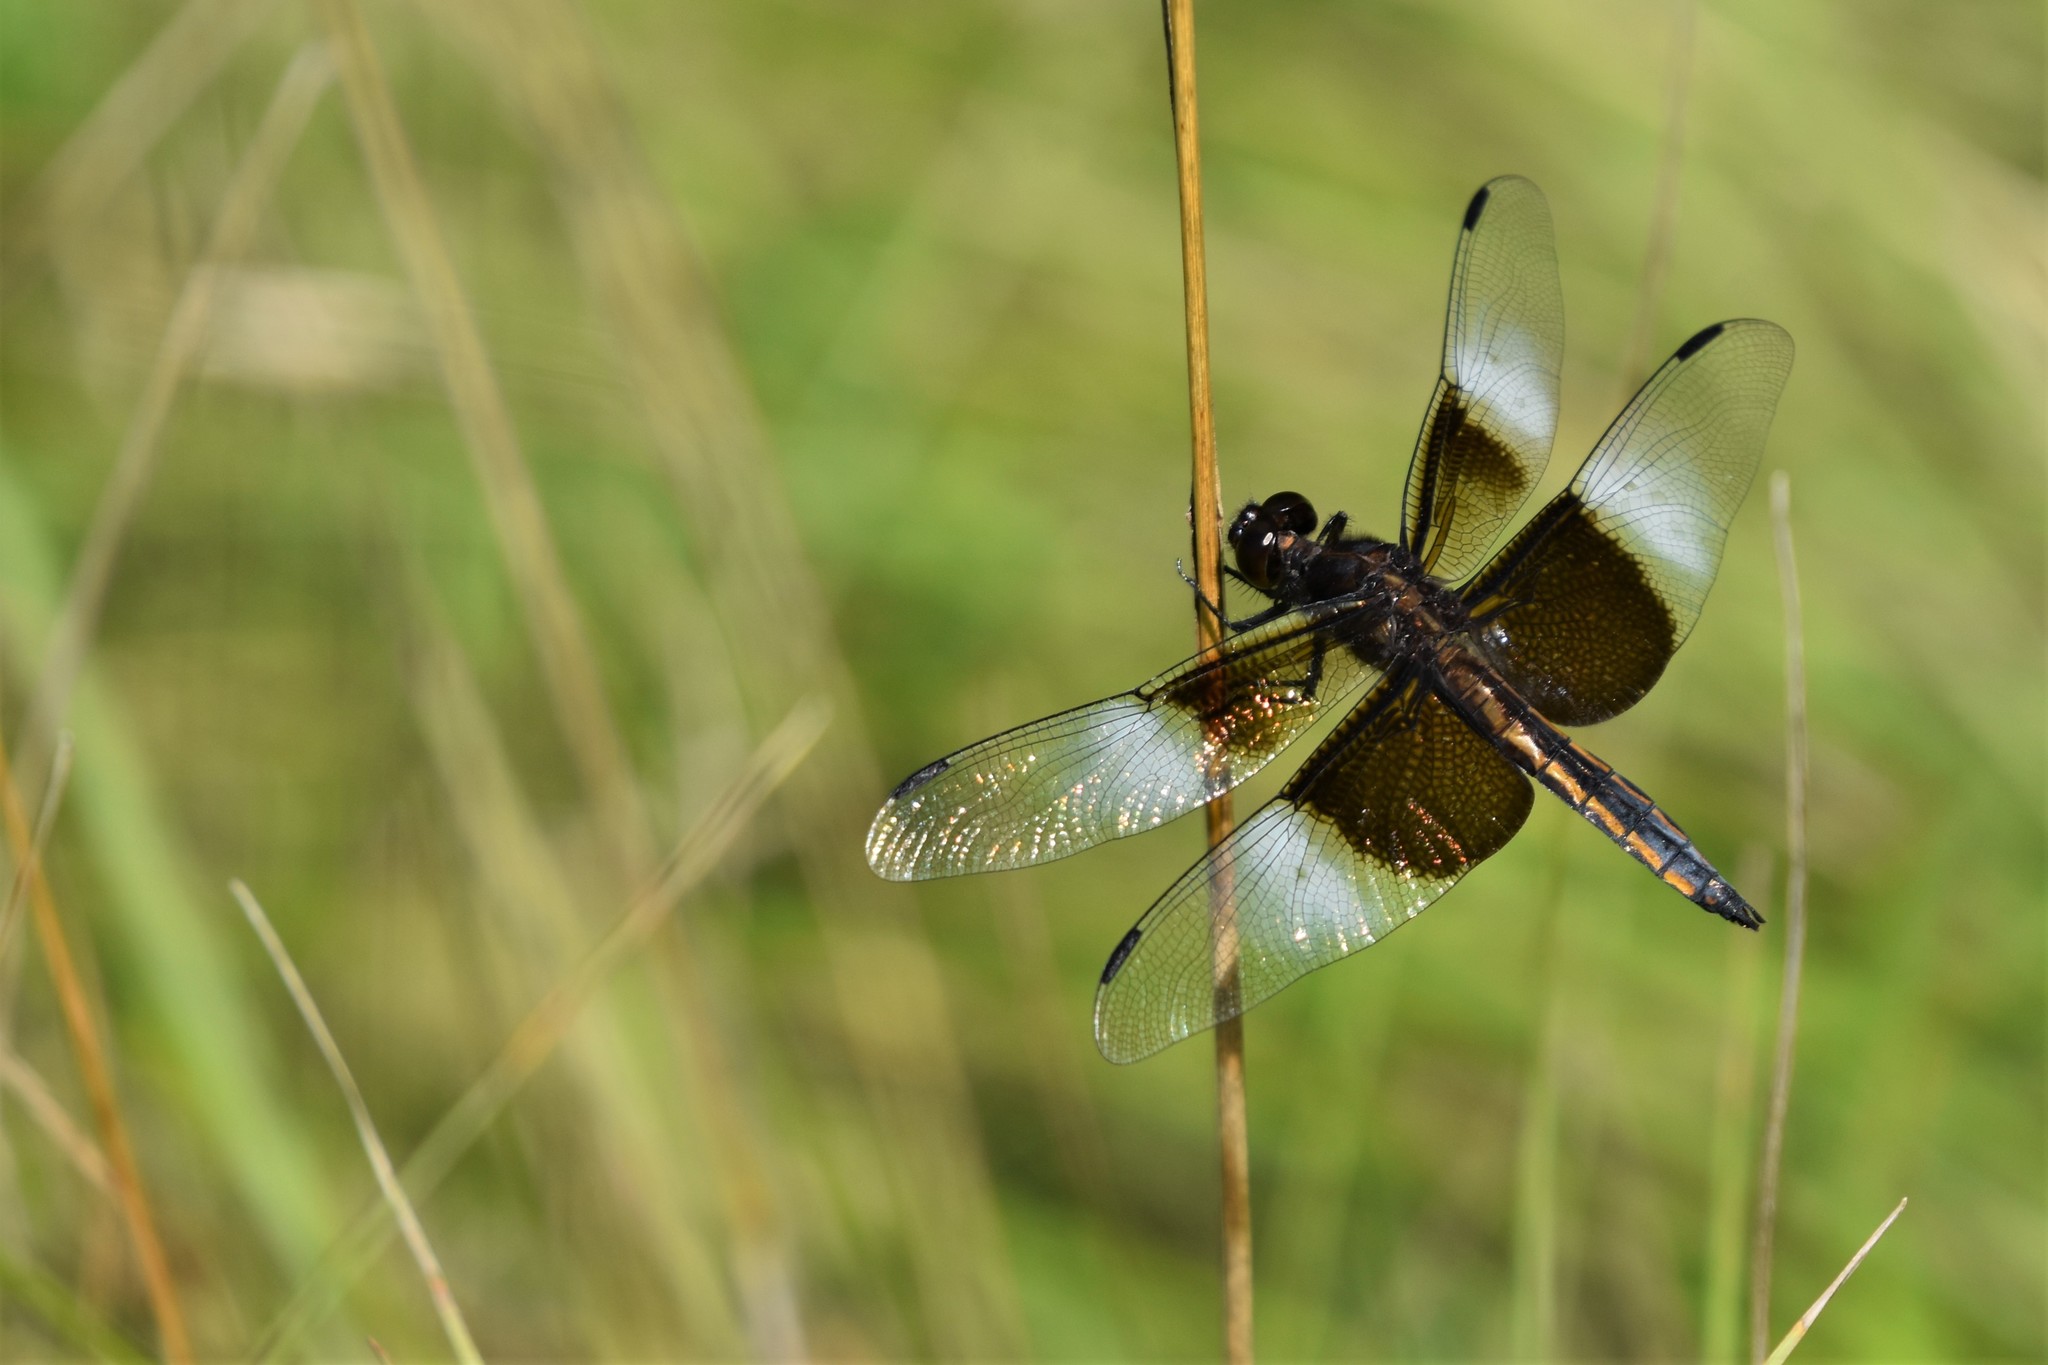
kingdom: Animalia
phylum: Arthropoda
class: Insecta
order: Odonata
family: Libellulidae
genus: Libellula
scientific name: Libellula luctuosa
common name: Widow skimmer
